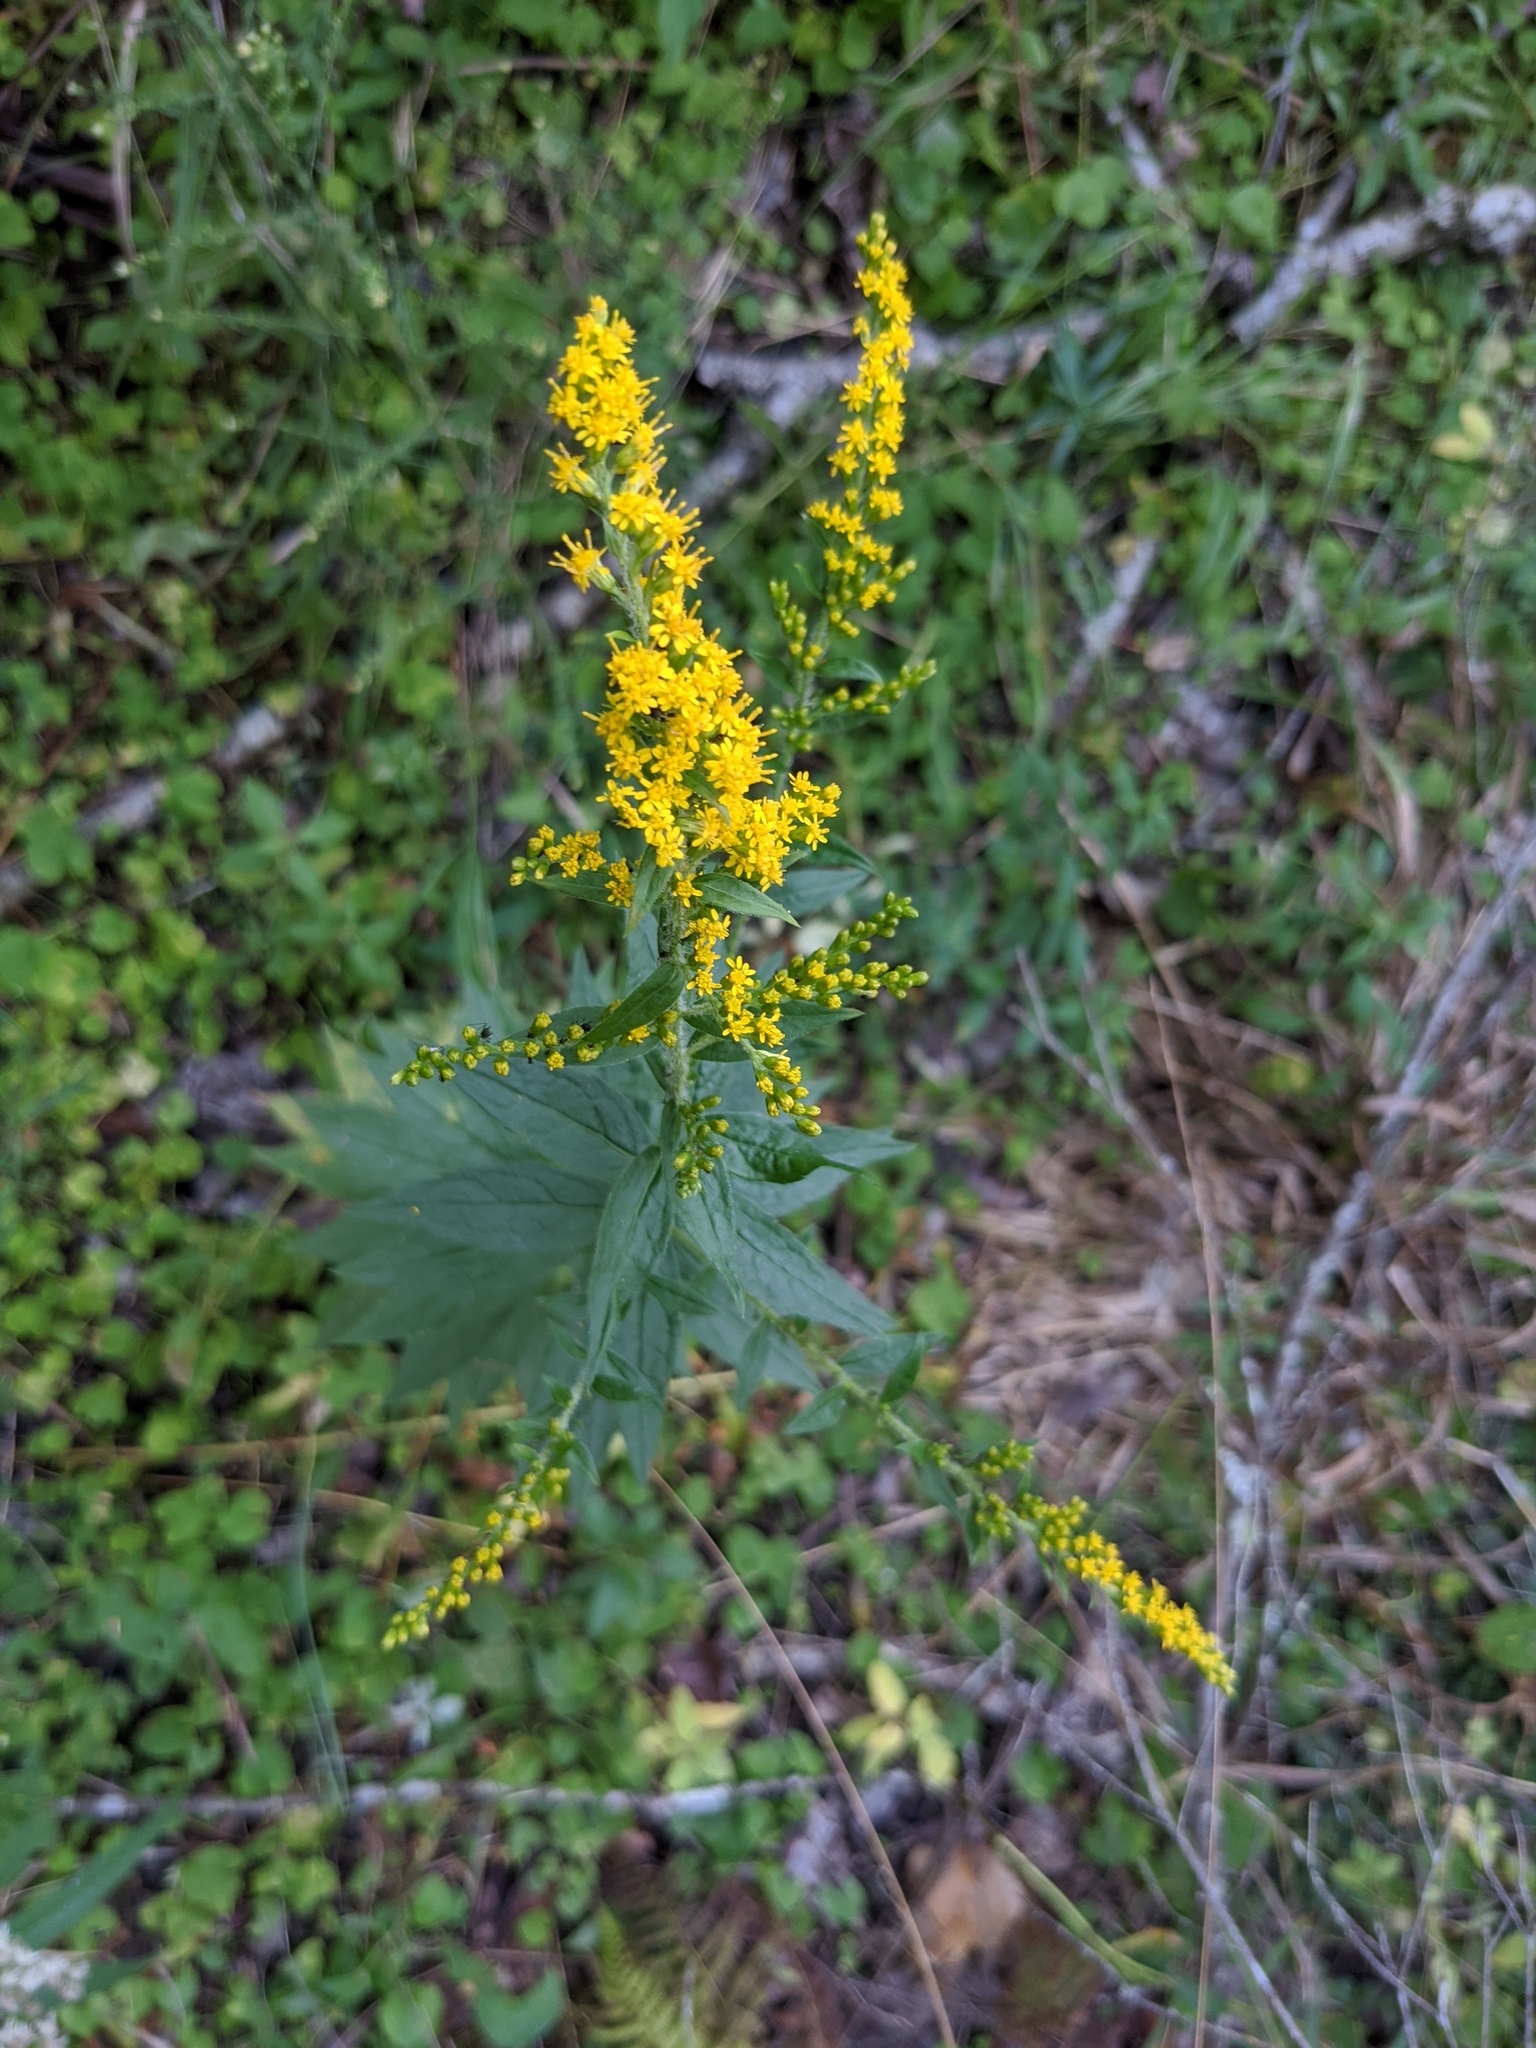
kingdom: Plantae
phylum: Tracheophyta
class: Magnoliopsida
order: Asterales
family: Asteraceae
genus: Solidago
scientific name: Solidago rugosa
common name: Rough-stemmed goldenrod
